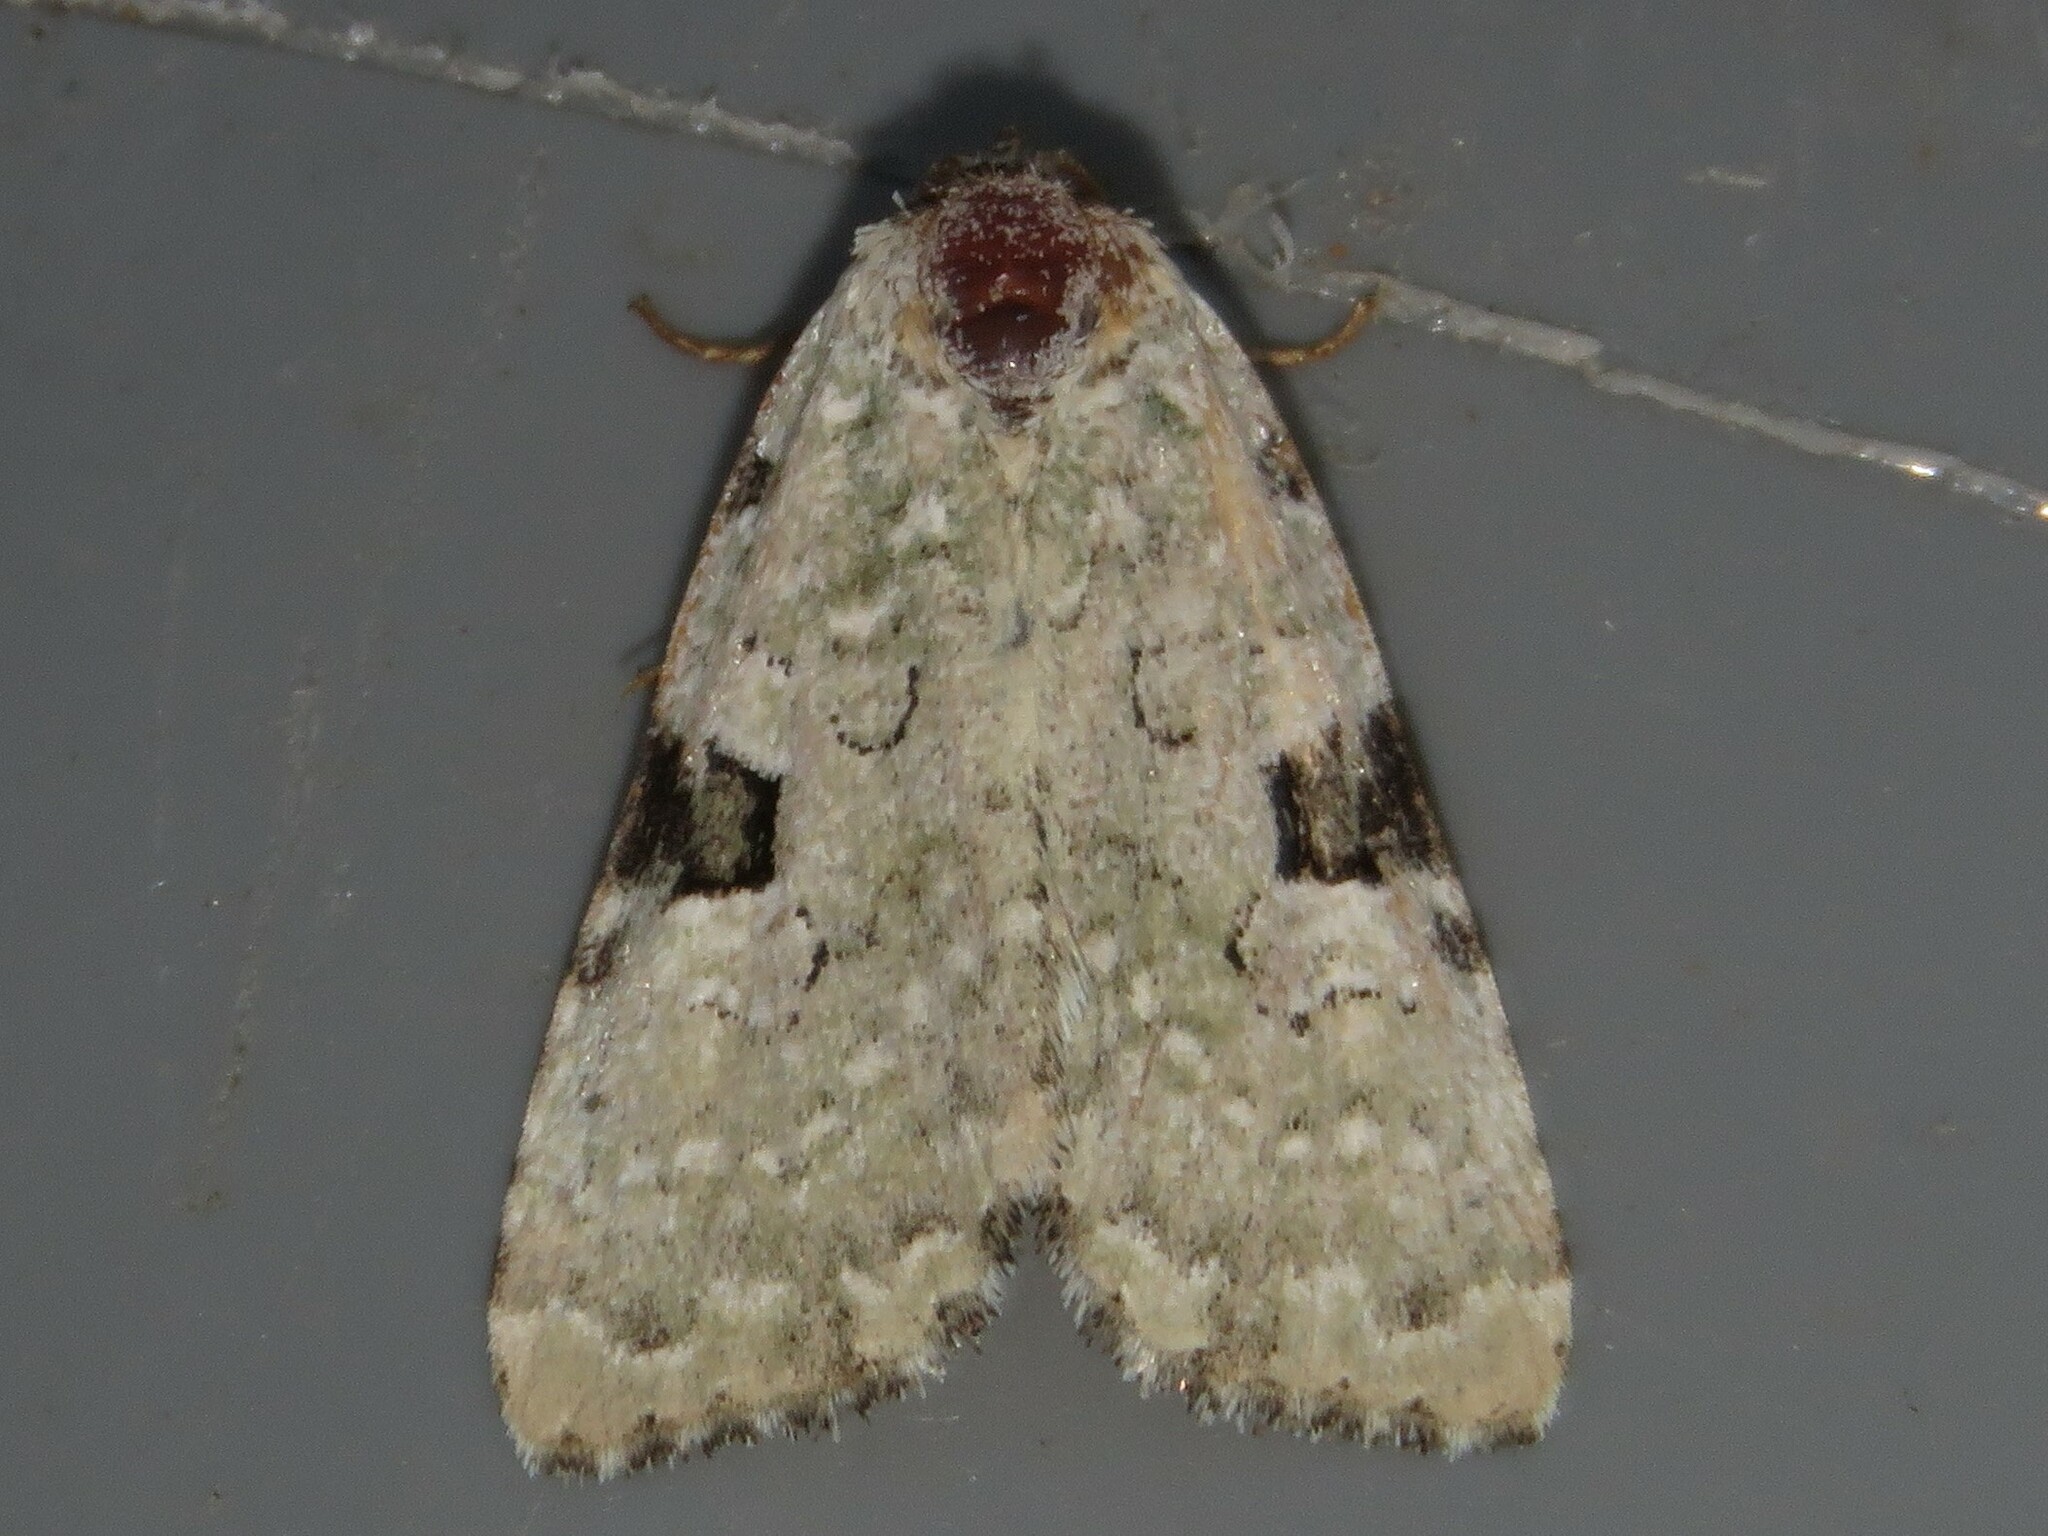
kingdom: Animalia
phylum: Arthropoda
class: Insecta
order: Lepidoptera
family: Noctuidae
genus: Leuconycta
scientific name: Leuconycta diphteroides
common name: Green leuconycta moth
